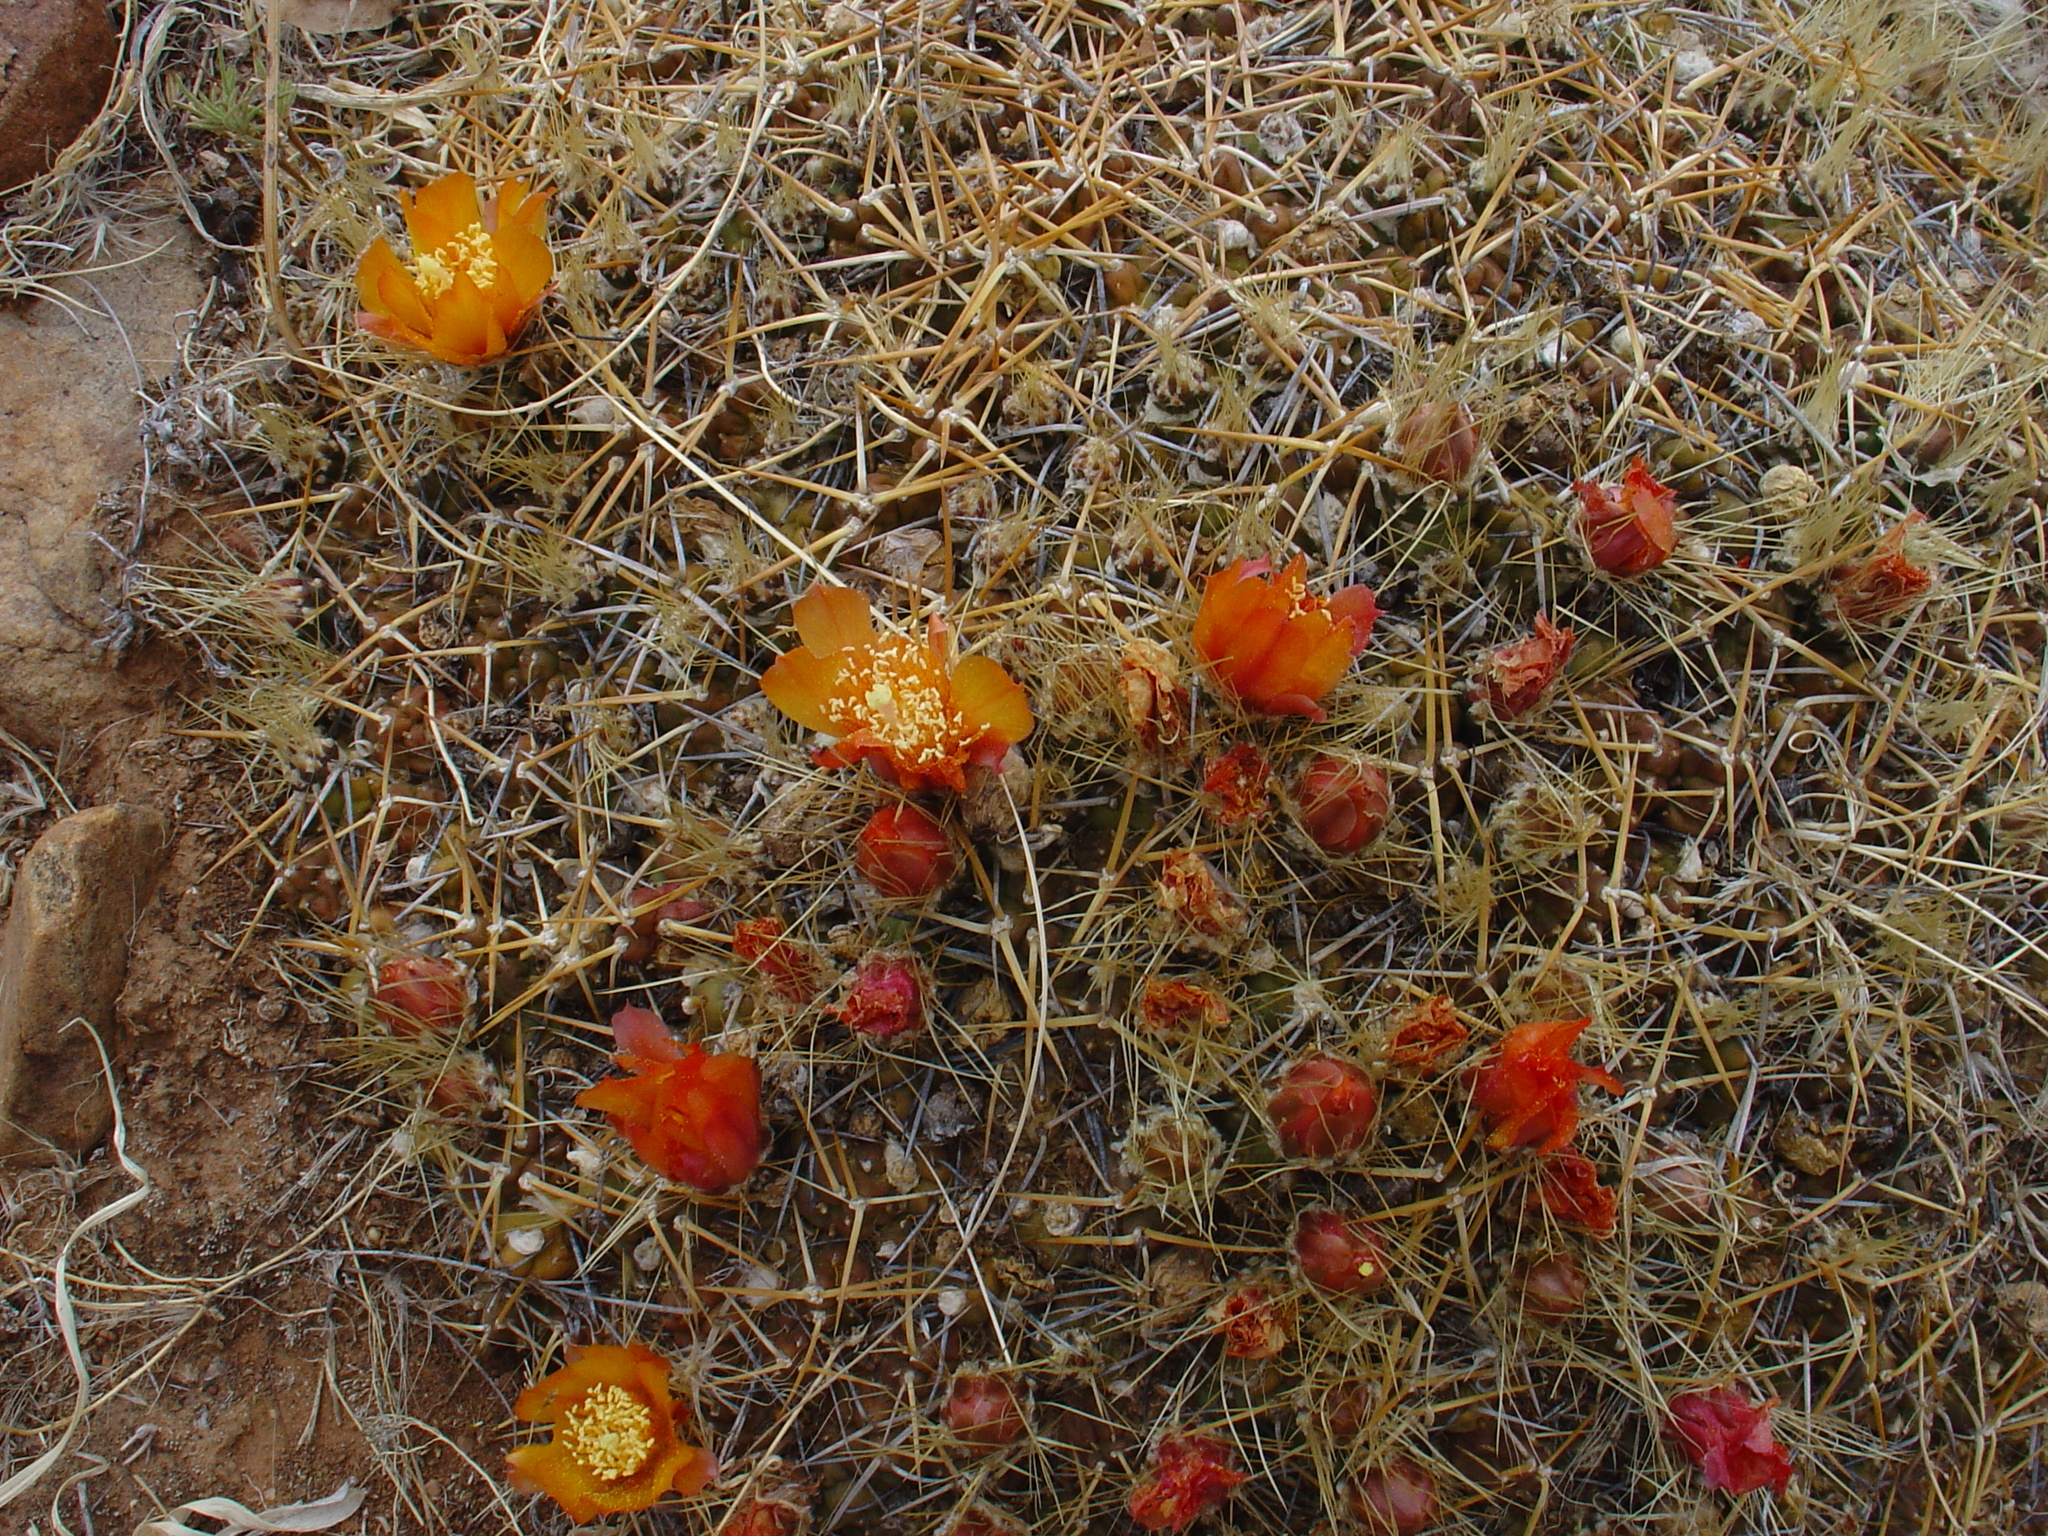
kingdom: Plantae
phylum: Tracheophyta
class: Magnoliopsida
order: Caryophyllales
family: Cactaceae
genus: Cumulopuntia
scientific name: Cumulopuntia rossiana
